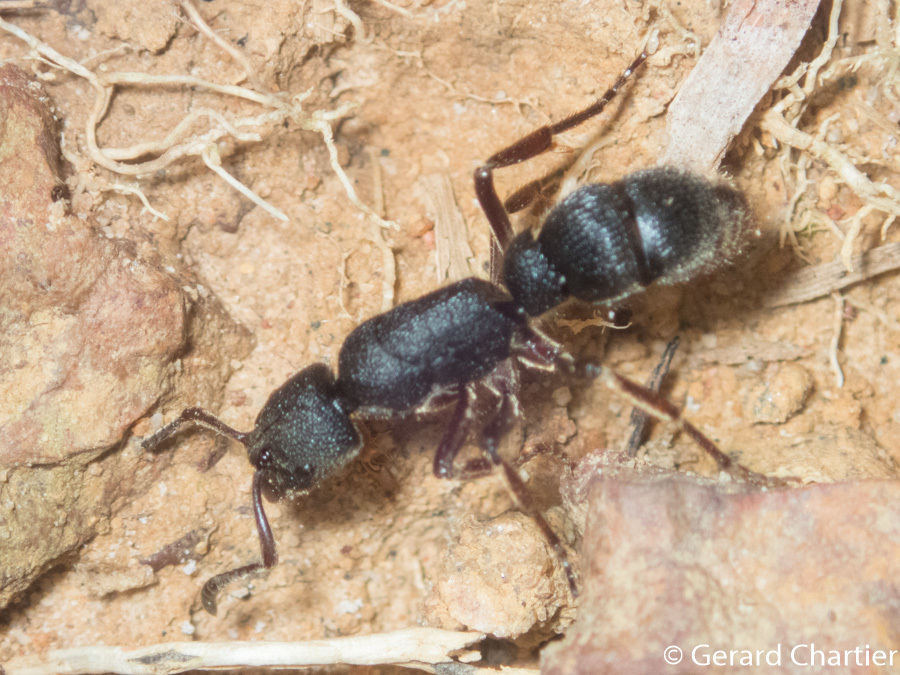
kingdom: Animalia
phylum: Arthropoda
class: Insecta
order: Hymenoptera
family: Formicidae
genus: Pseudoneoponera
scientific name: Pseudoneoponera rufipes
